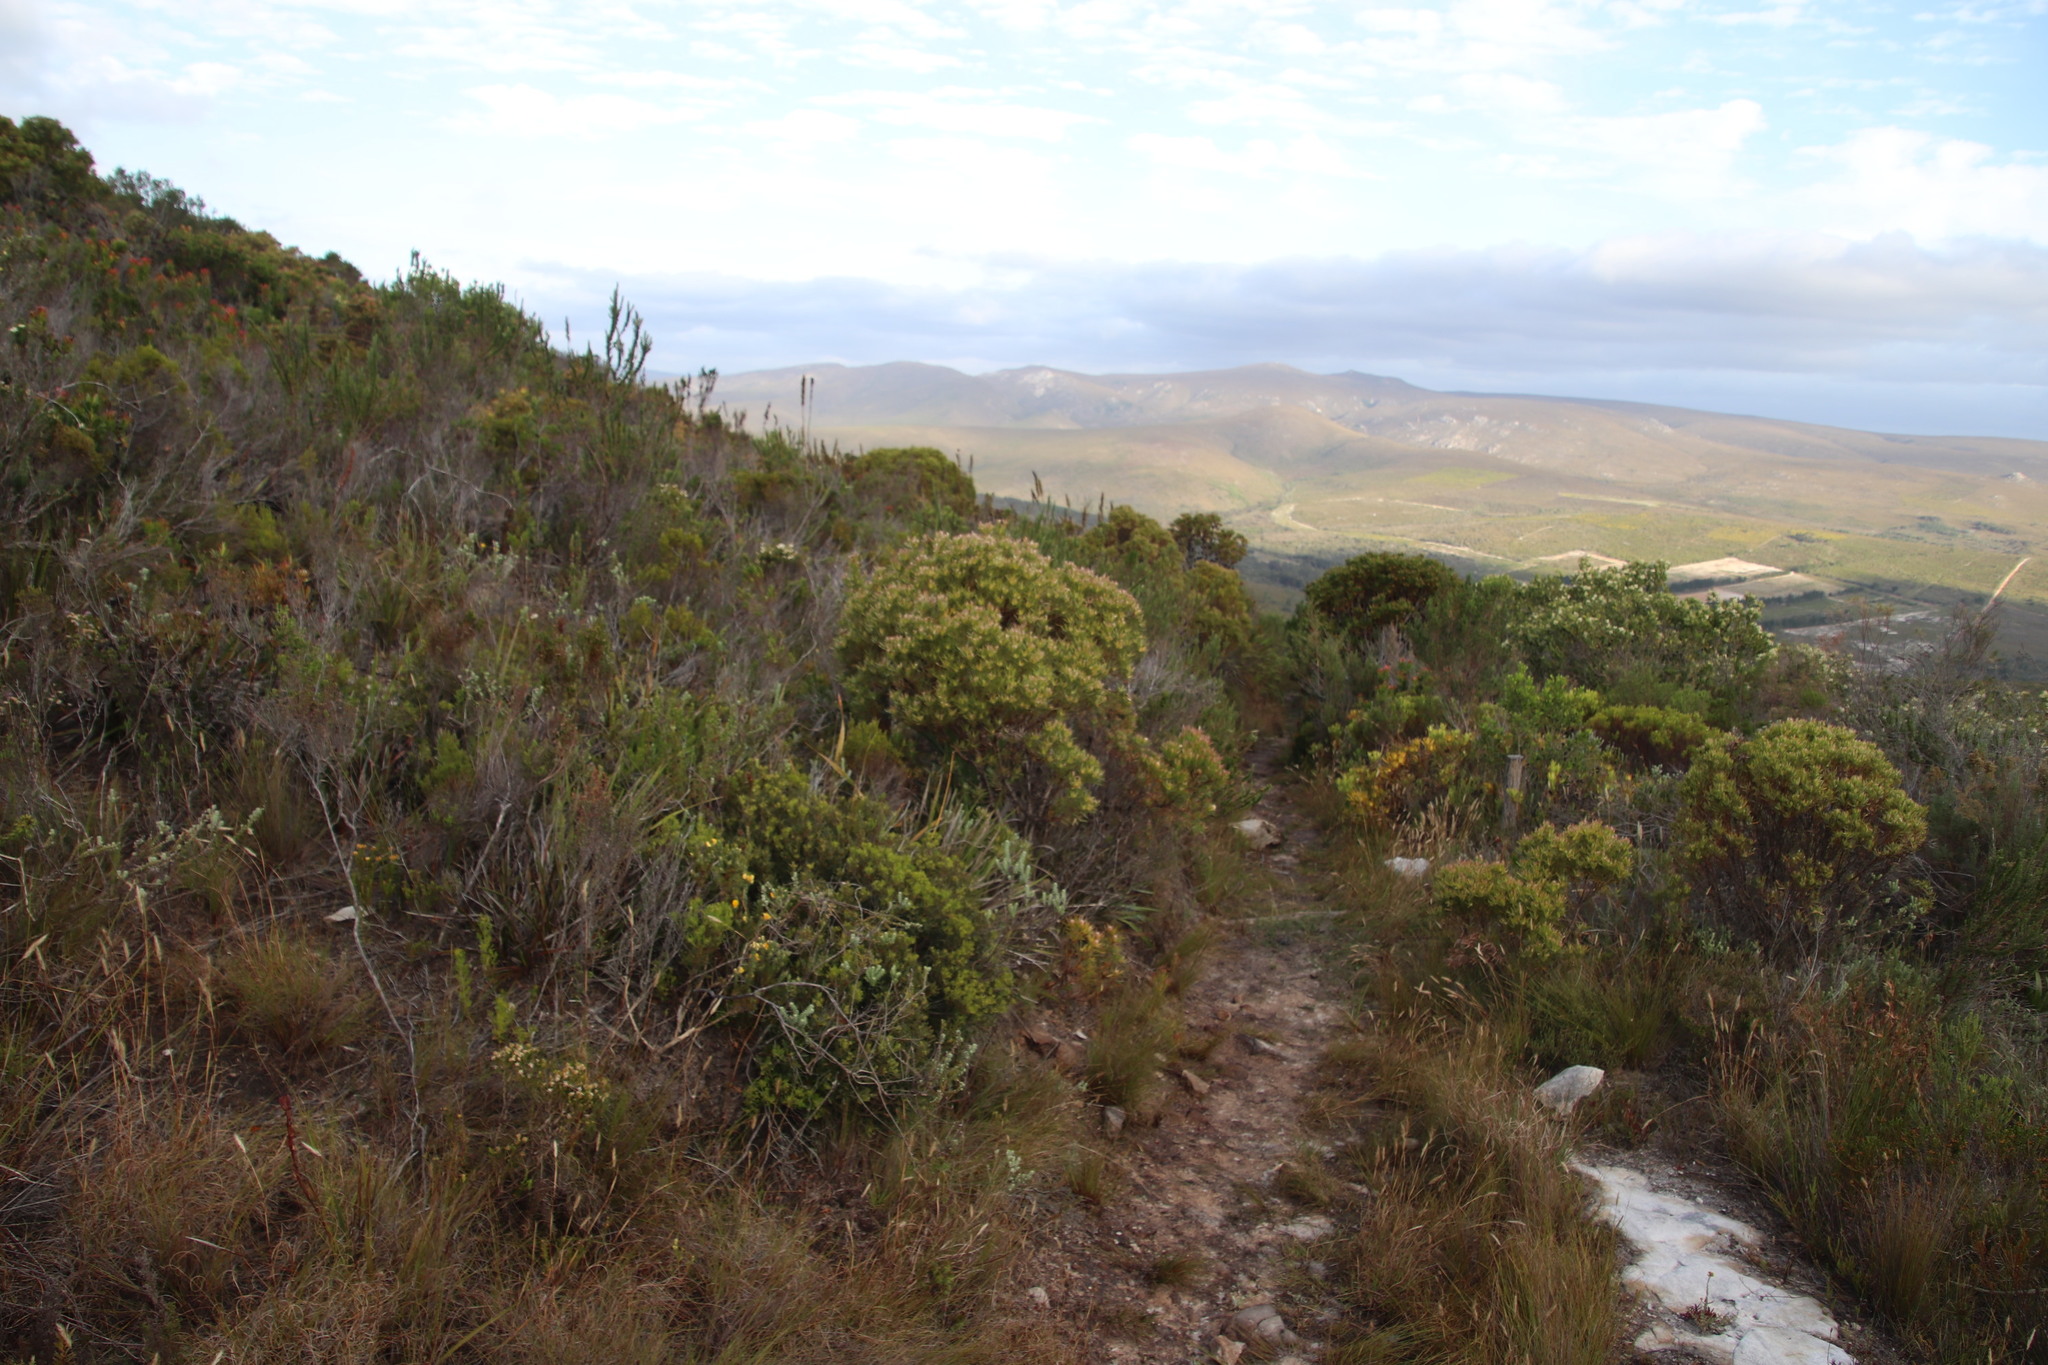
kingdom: Plantae
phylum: Tracheophyta
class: Magnoliopsida
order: Proteales
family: Proteaceae
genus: Leucadendron
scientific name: Leucadendron xanthoconus
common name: Sickle-leaf conebush
